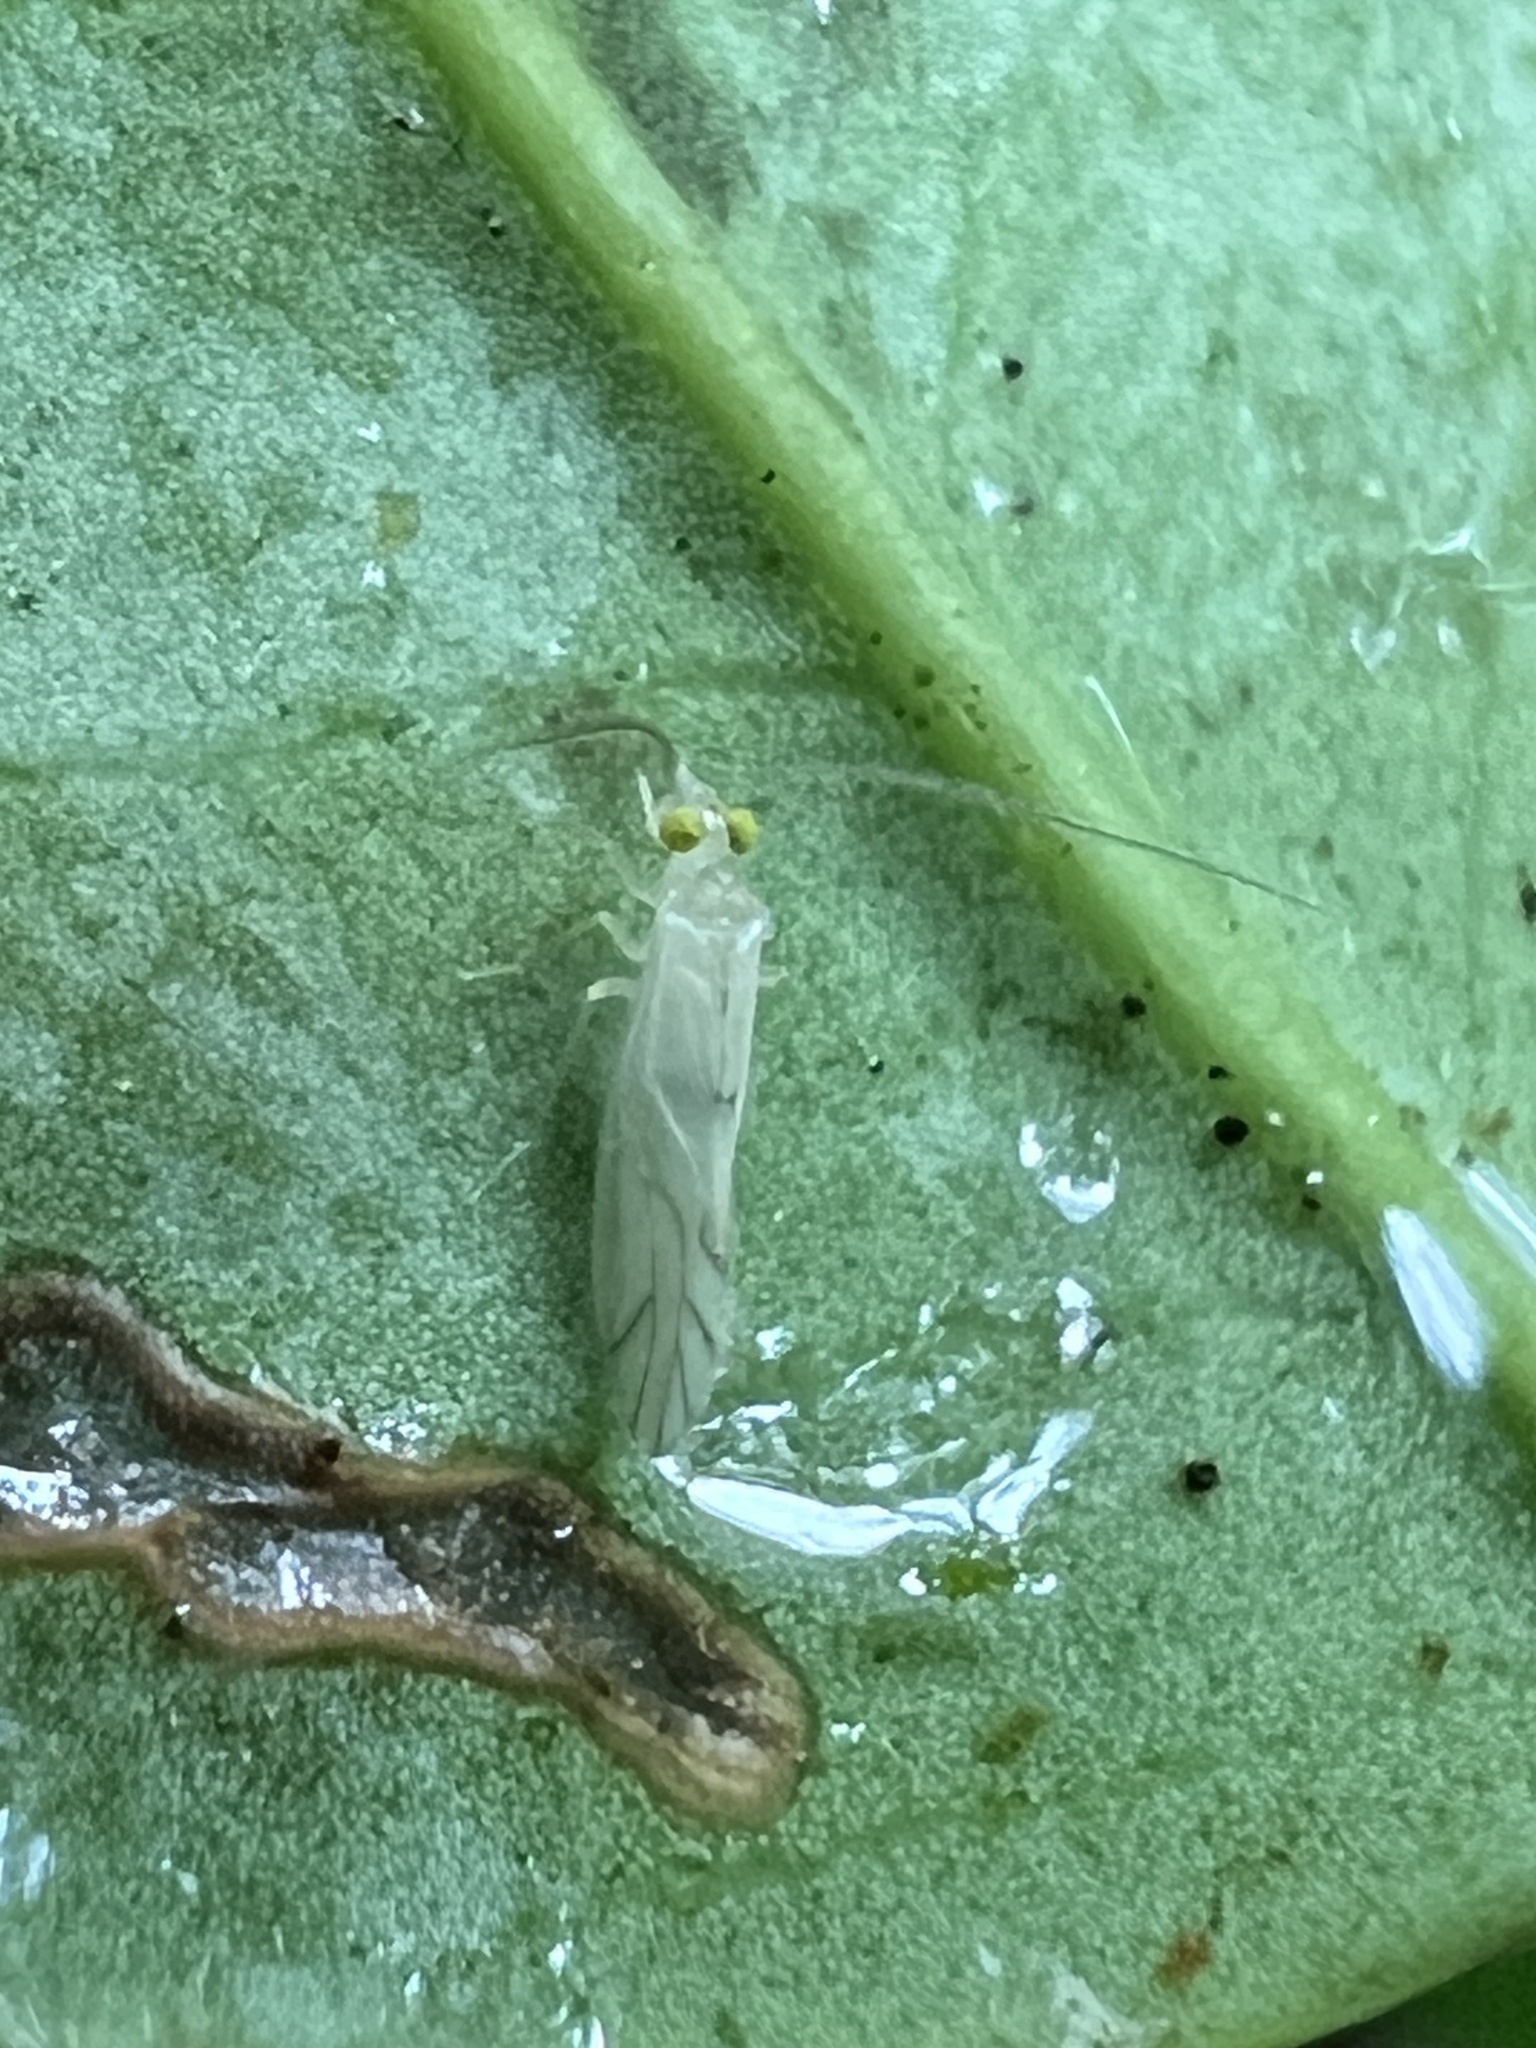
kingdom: Animalia
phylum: Arthropoda
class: Insecta
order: Psocodea
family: Paracaeciliidae
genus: Xanthocaecilius
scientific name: Xanthocaecilius sommermanae
